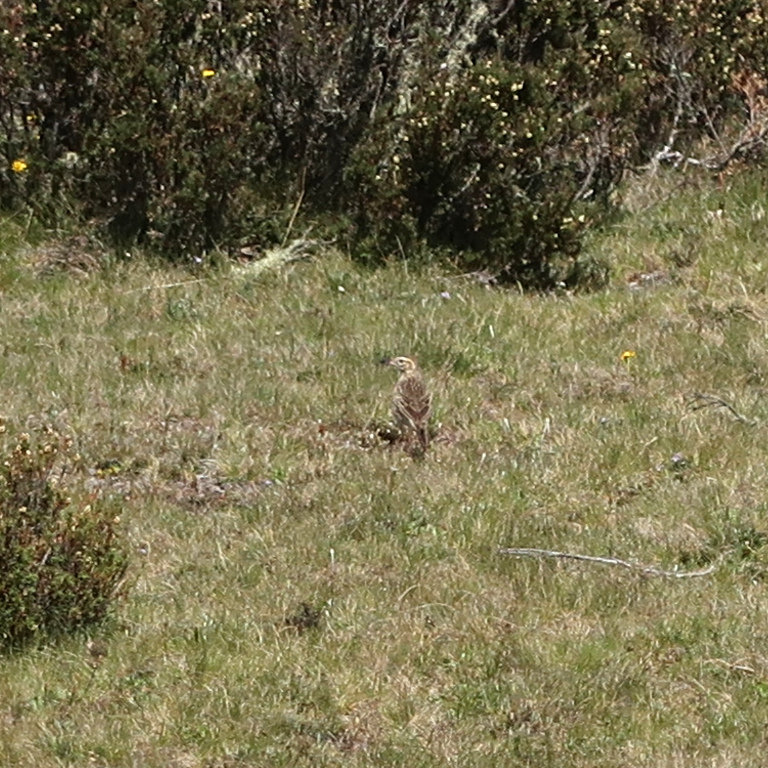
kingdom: Animalia
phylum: Chordata
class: Aves
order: Passeriformes
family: Motacillidae
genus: Anthus
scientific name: Anthus australis
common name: Australian pipit
